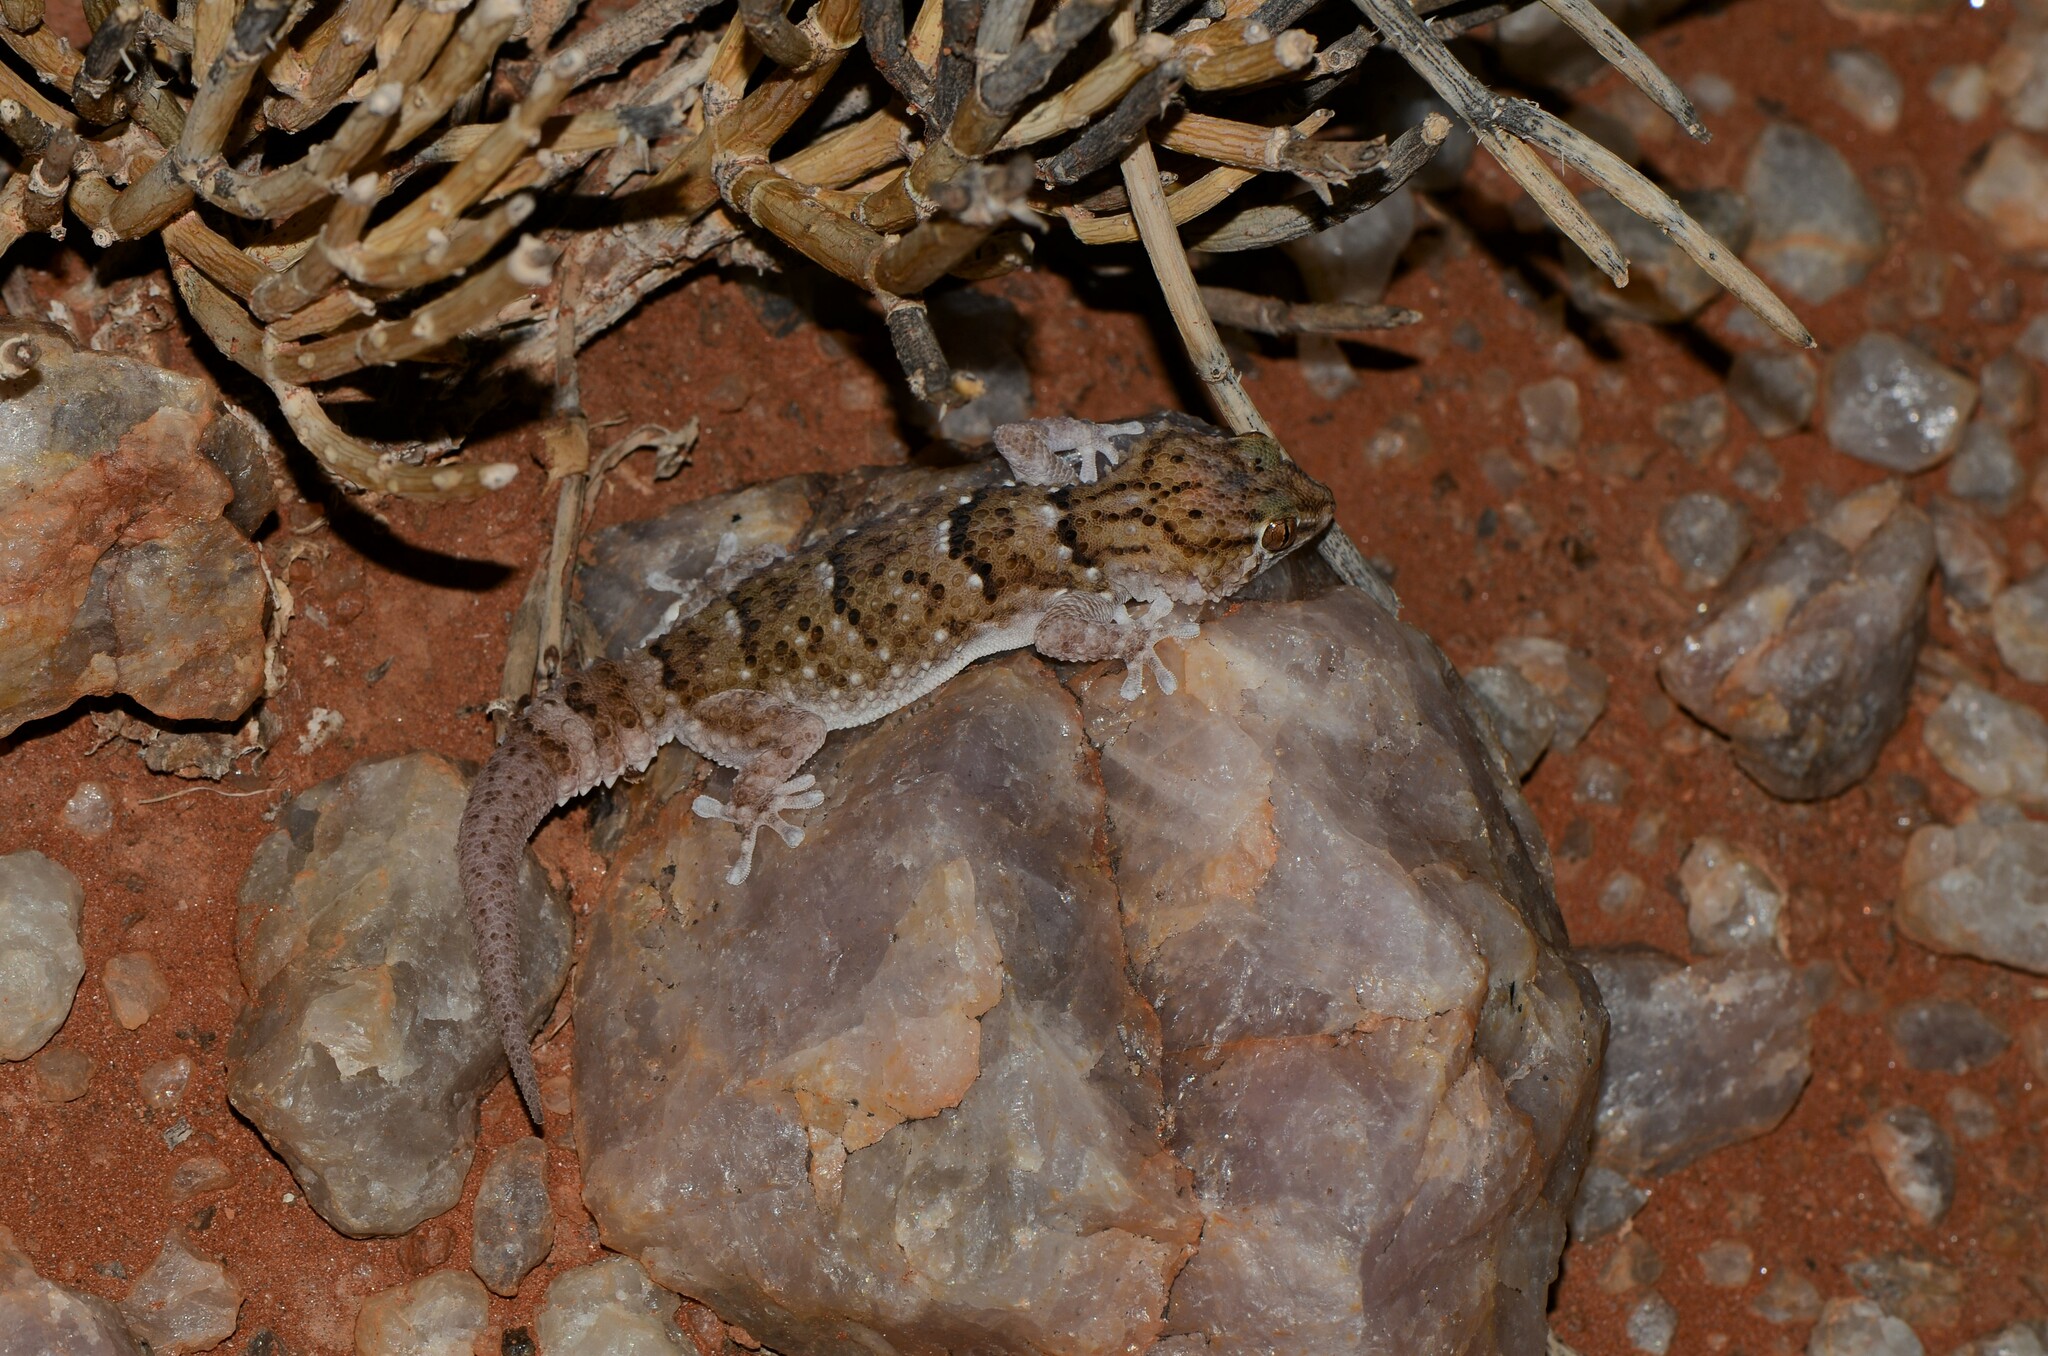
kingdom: Animalia
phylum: Chordata
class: Squamata
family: Gekkonidae
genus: Chondrodactylus
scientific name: Chondrodactylus laevigatus
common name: Fischer's thick-toed gecko
